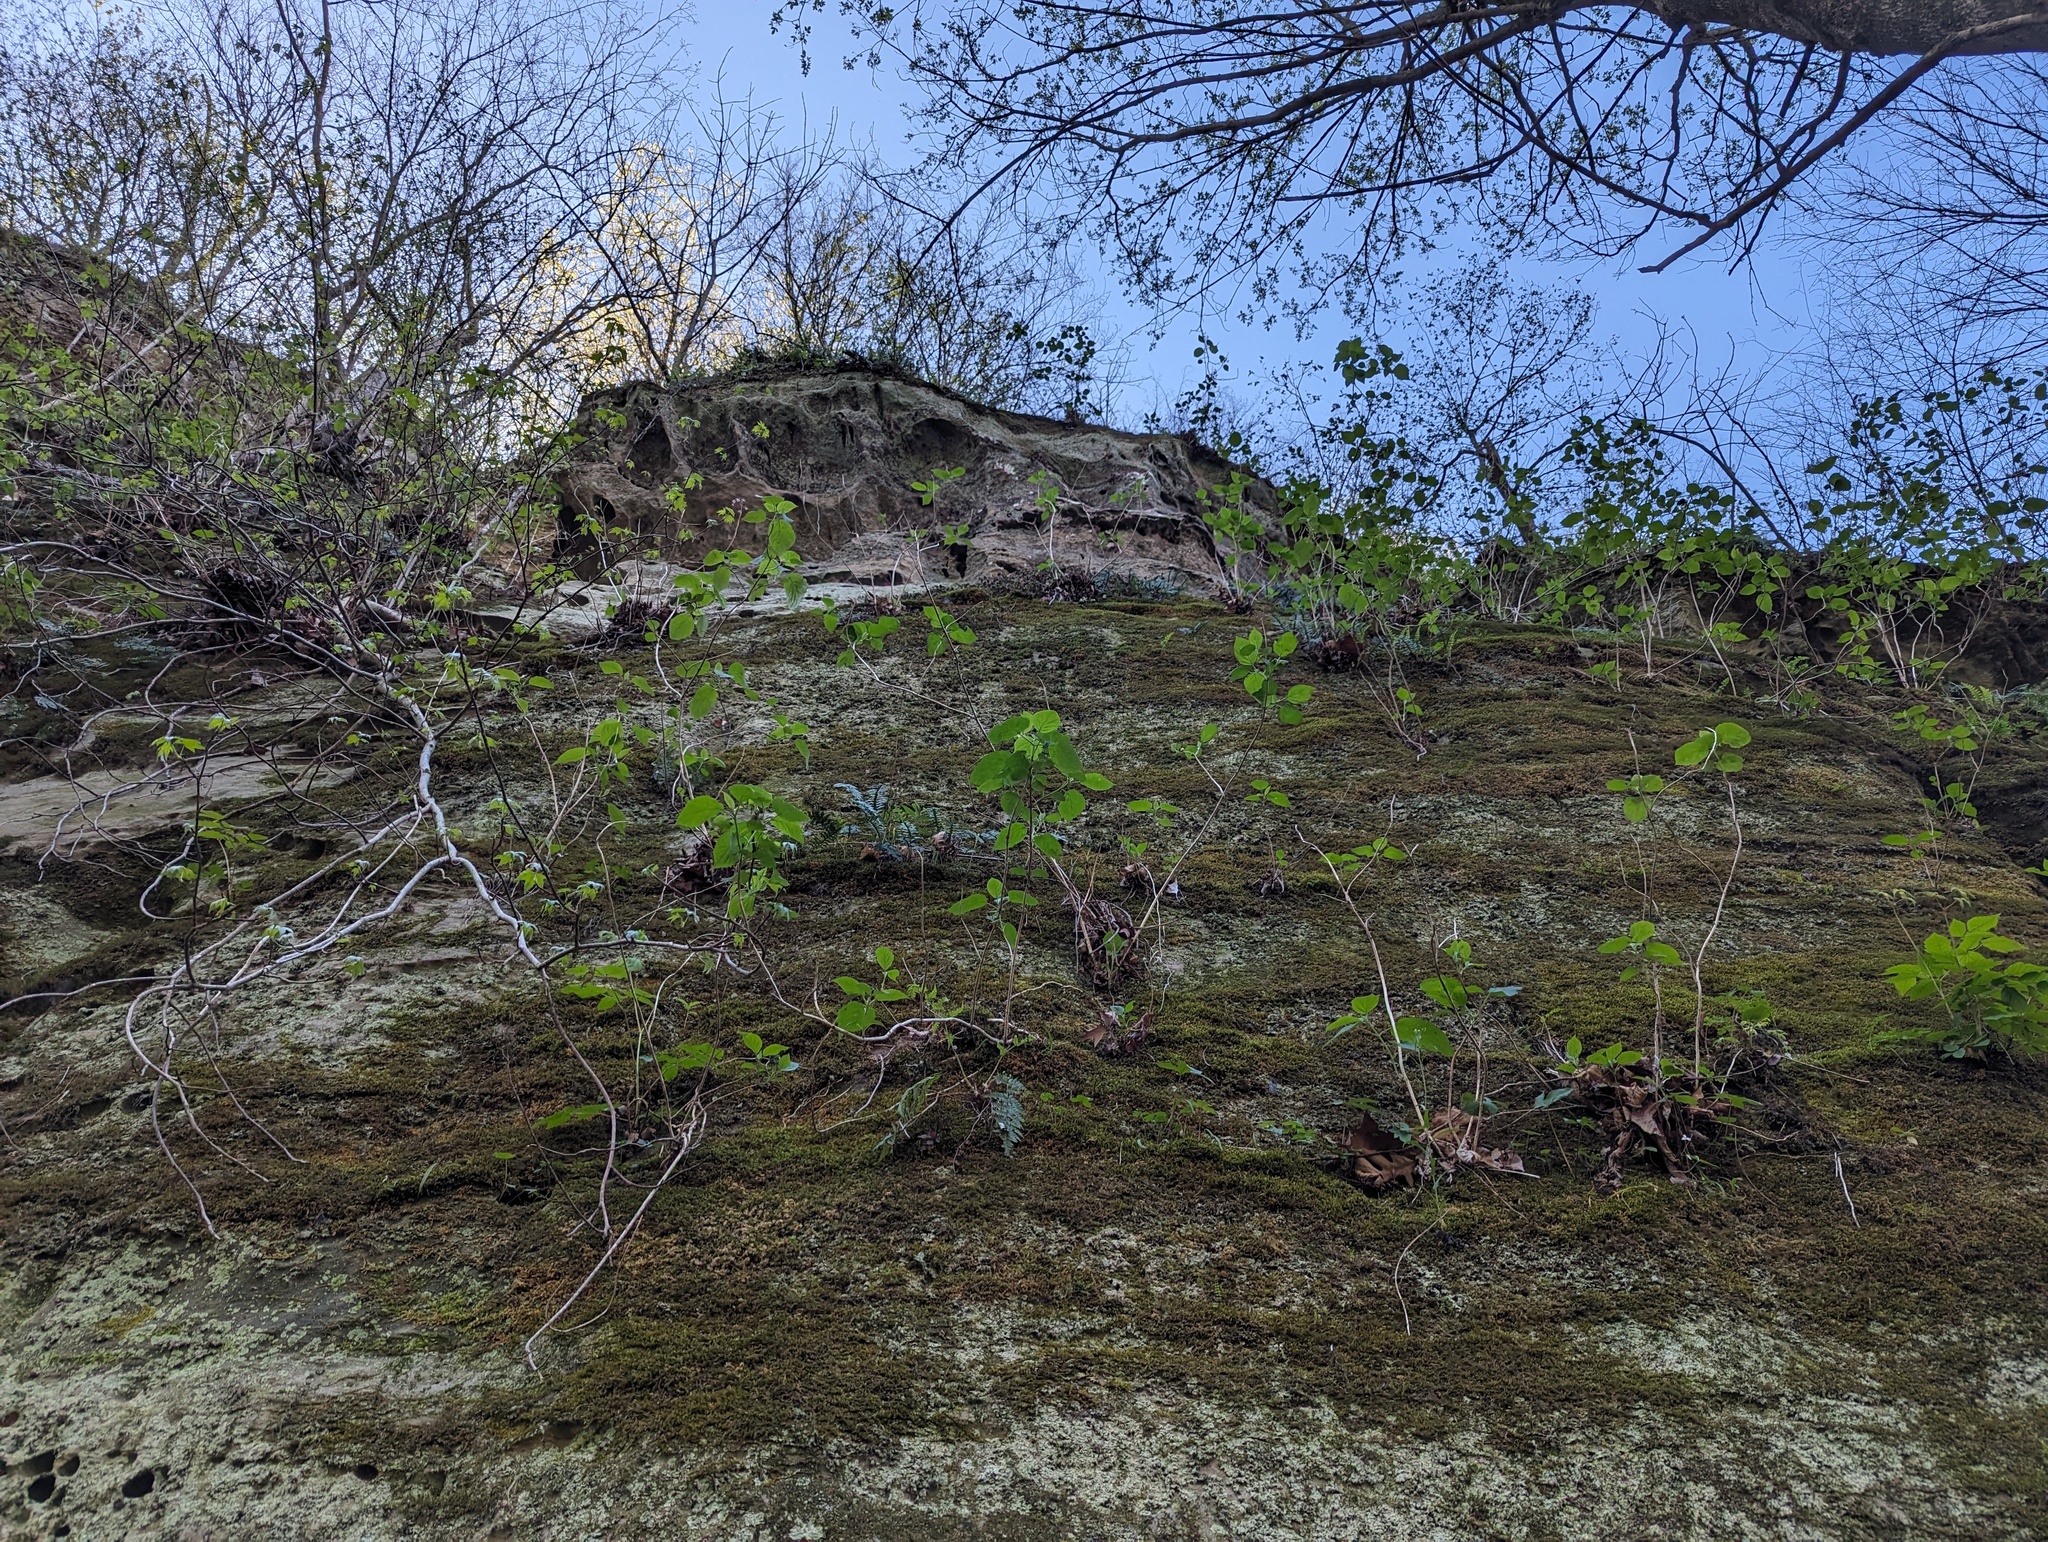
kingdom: Plantae
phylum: Tracheophyta
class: Polypodiopsida
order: Polypodiales
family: Polypodiaceae
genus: Pleopeltis
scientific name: Pleopeltis michauxiana
